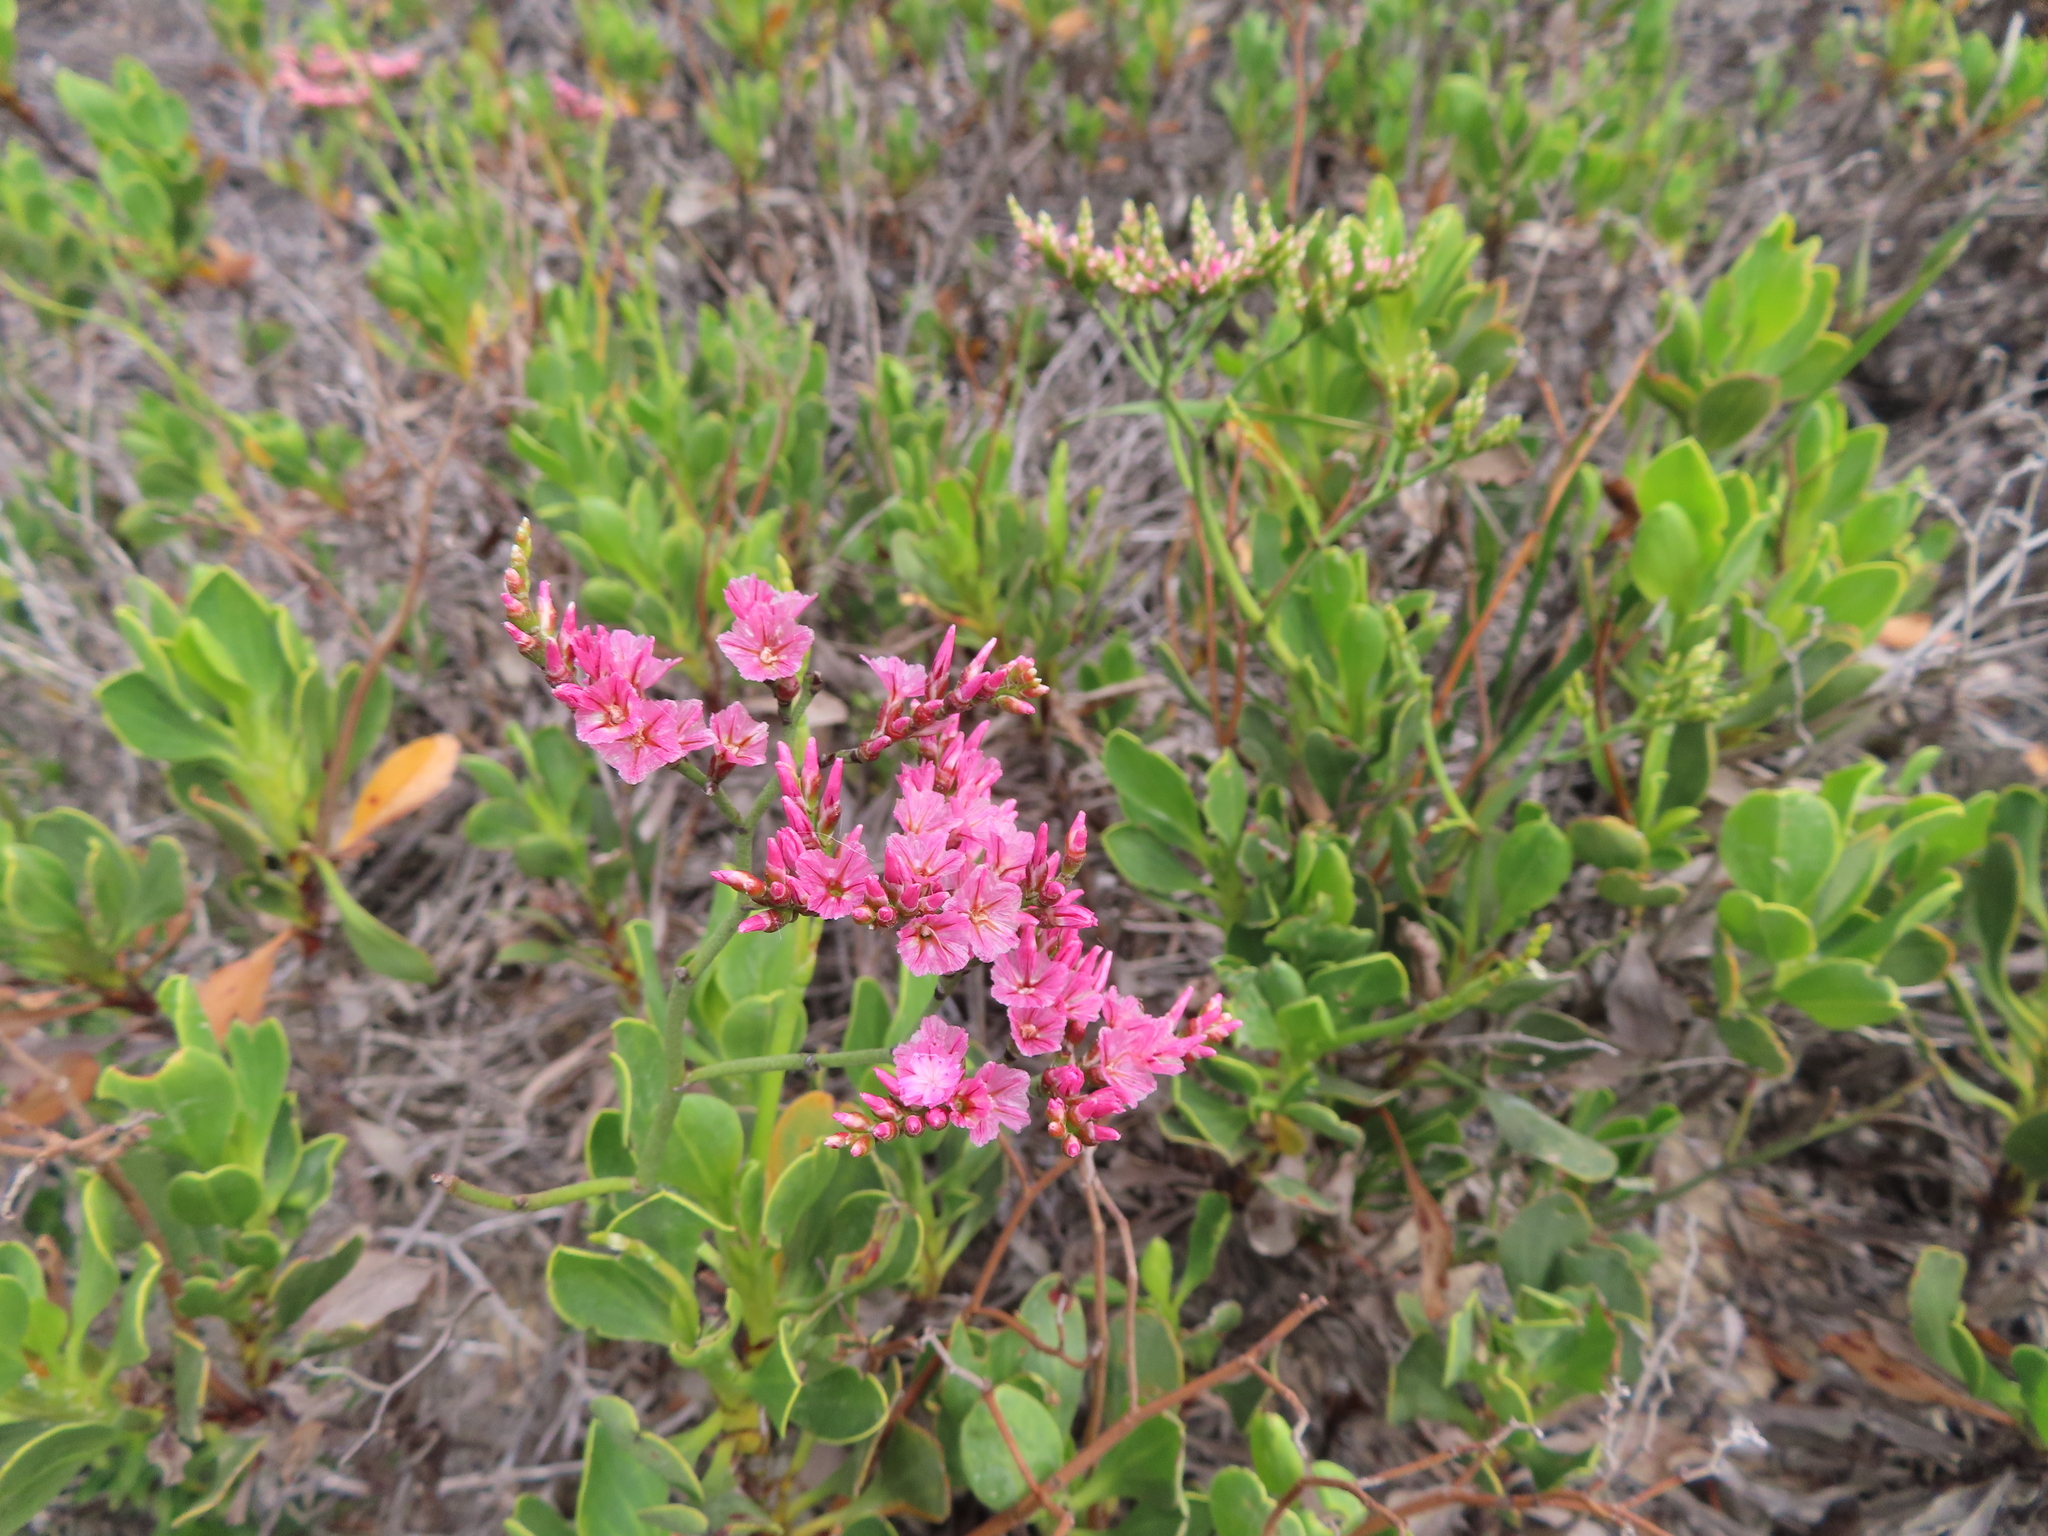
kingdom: Plantae
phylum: Tracheophyta
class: Magnoliopsida
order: Caryophyllales
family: Plumbaginaceae
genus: Limonium
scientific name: Limonium peregrinum
